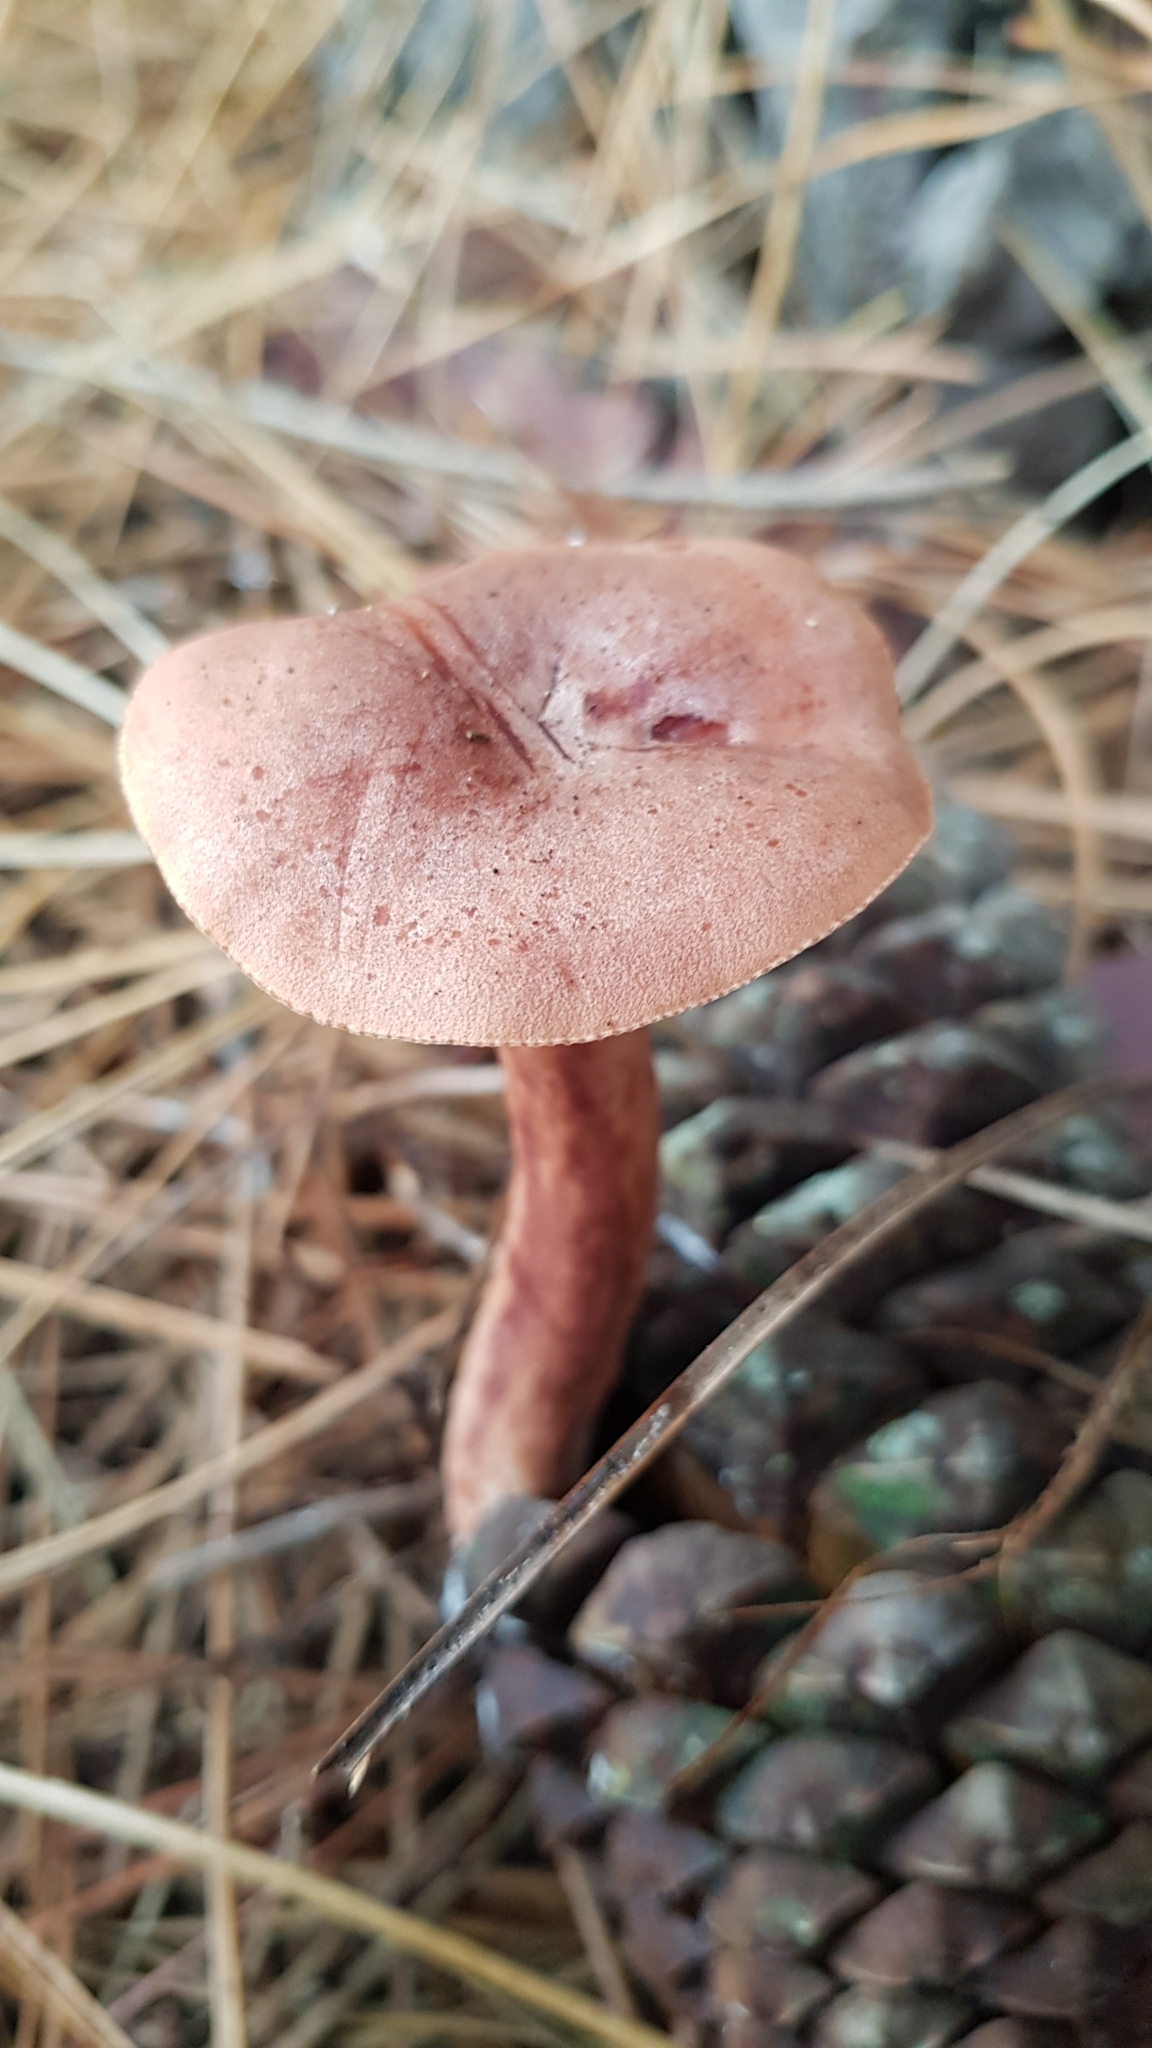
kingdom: Fungi
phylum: Basidiomycota
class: Agaricomycetes
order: Russulales
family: Russulaceae
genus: Lactarius
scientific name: Lactarius rufus
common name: Rufous milk-cap
